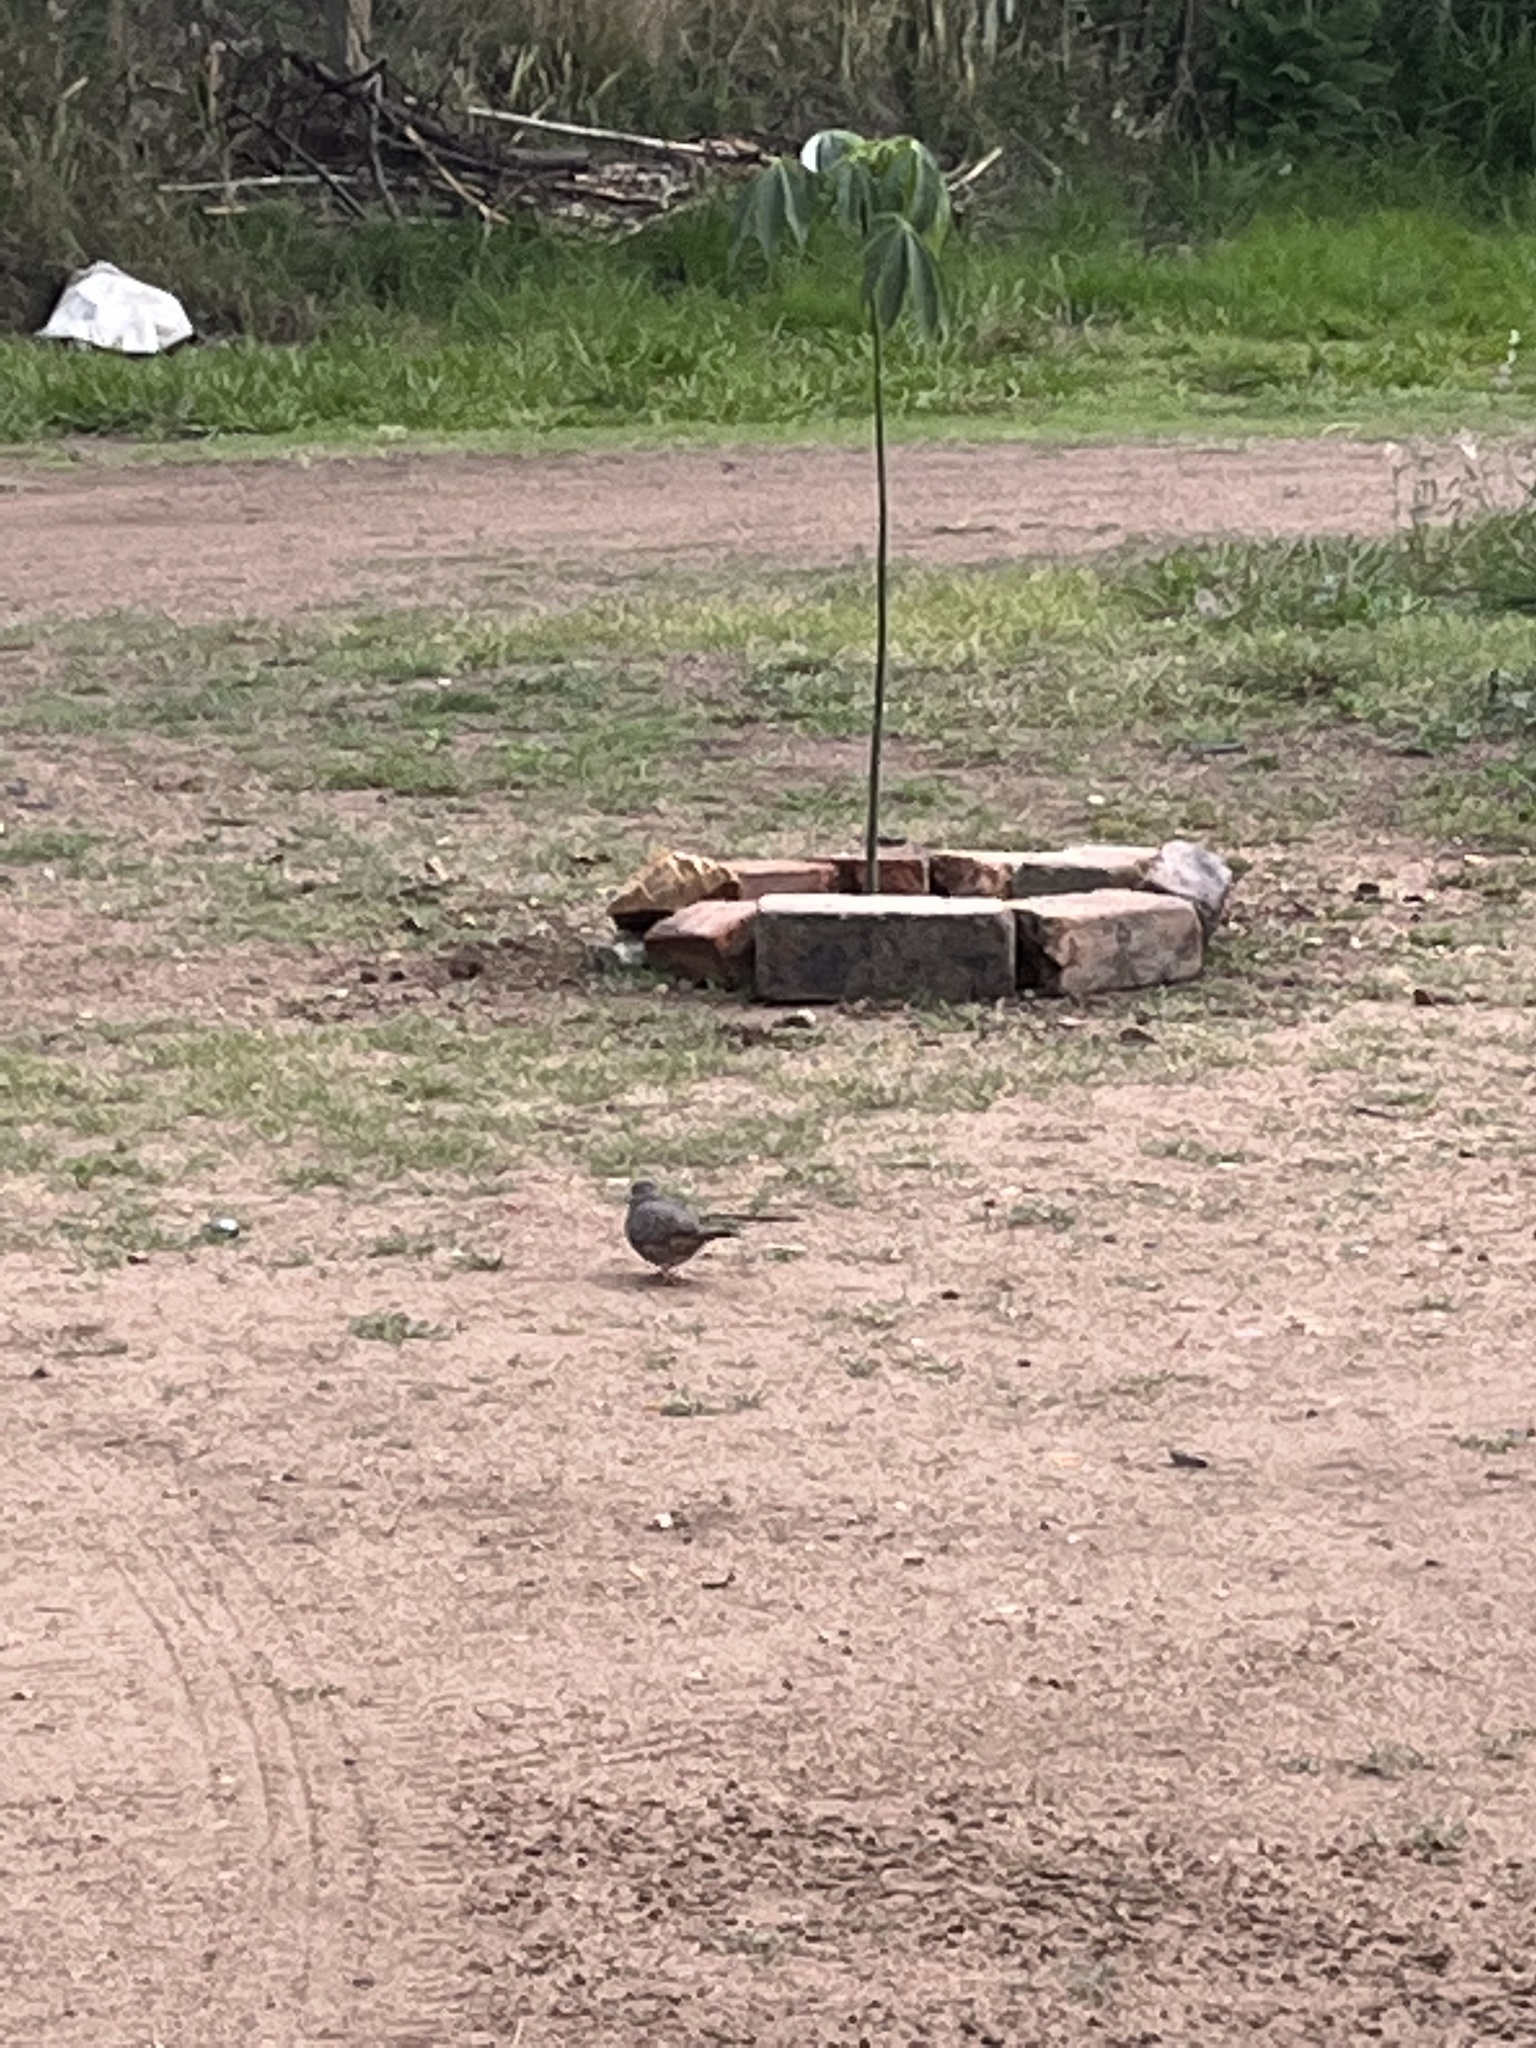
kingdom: Animalia
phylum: Chordata
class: Aves
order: Columbiformes
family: Columbidae
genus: Columbina
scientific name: Columbina inca
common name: Inca dove
